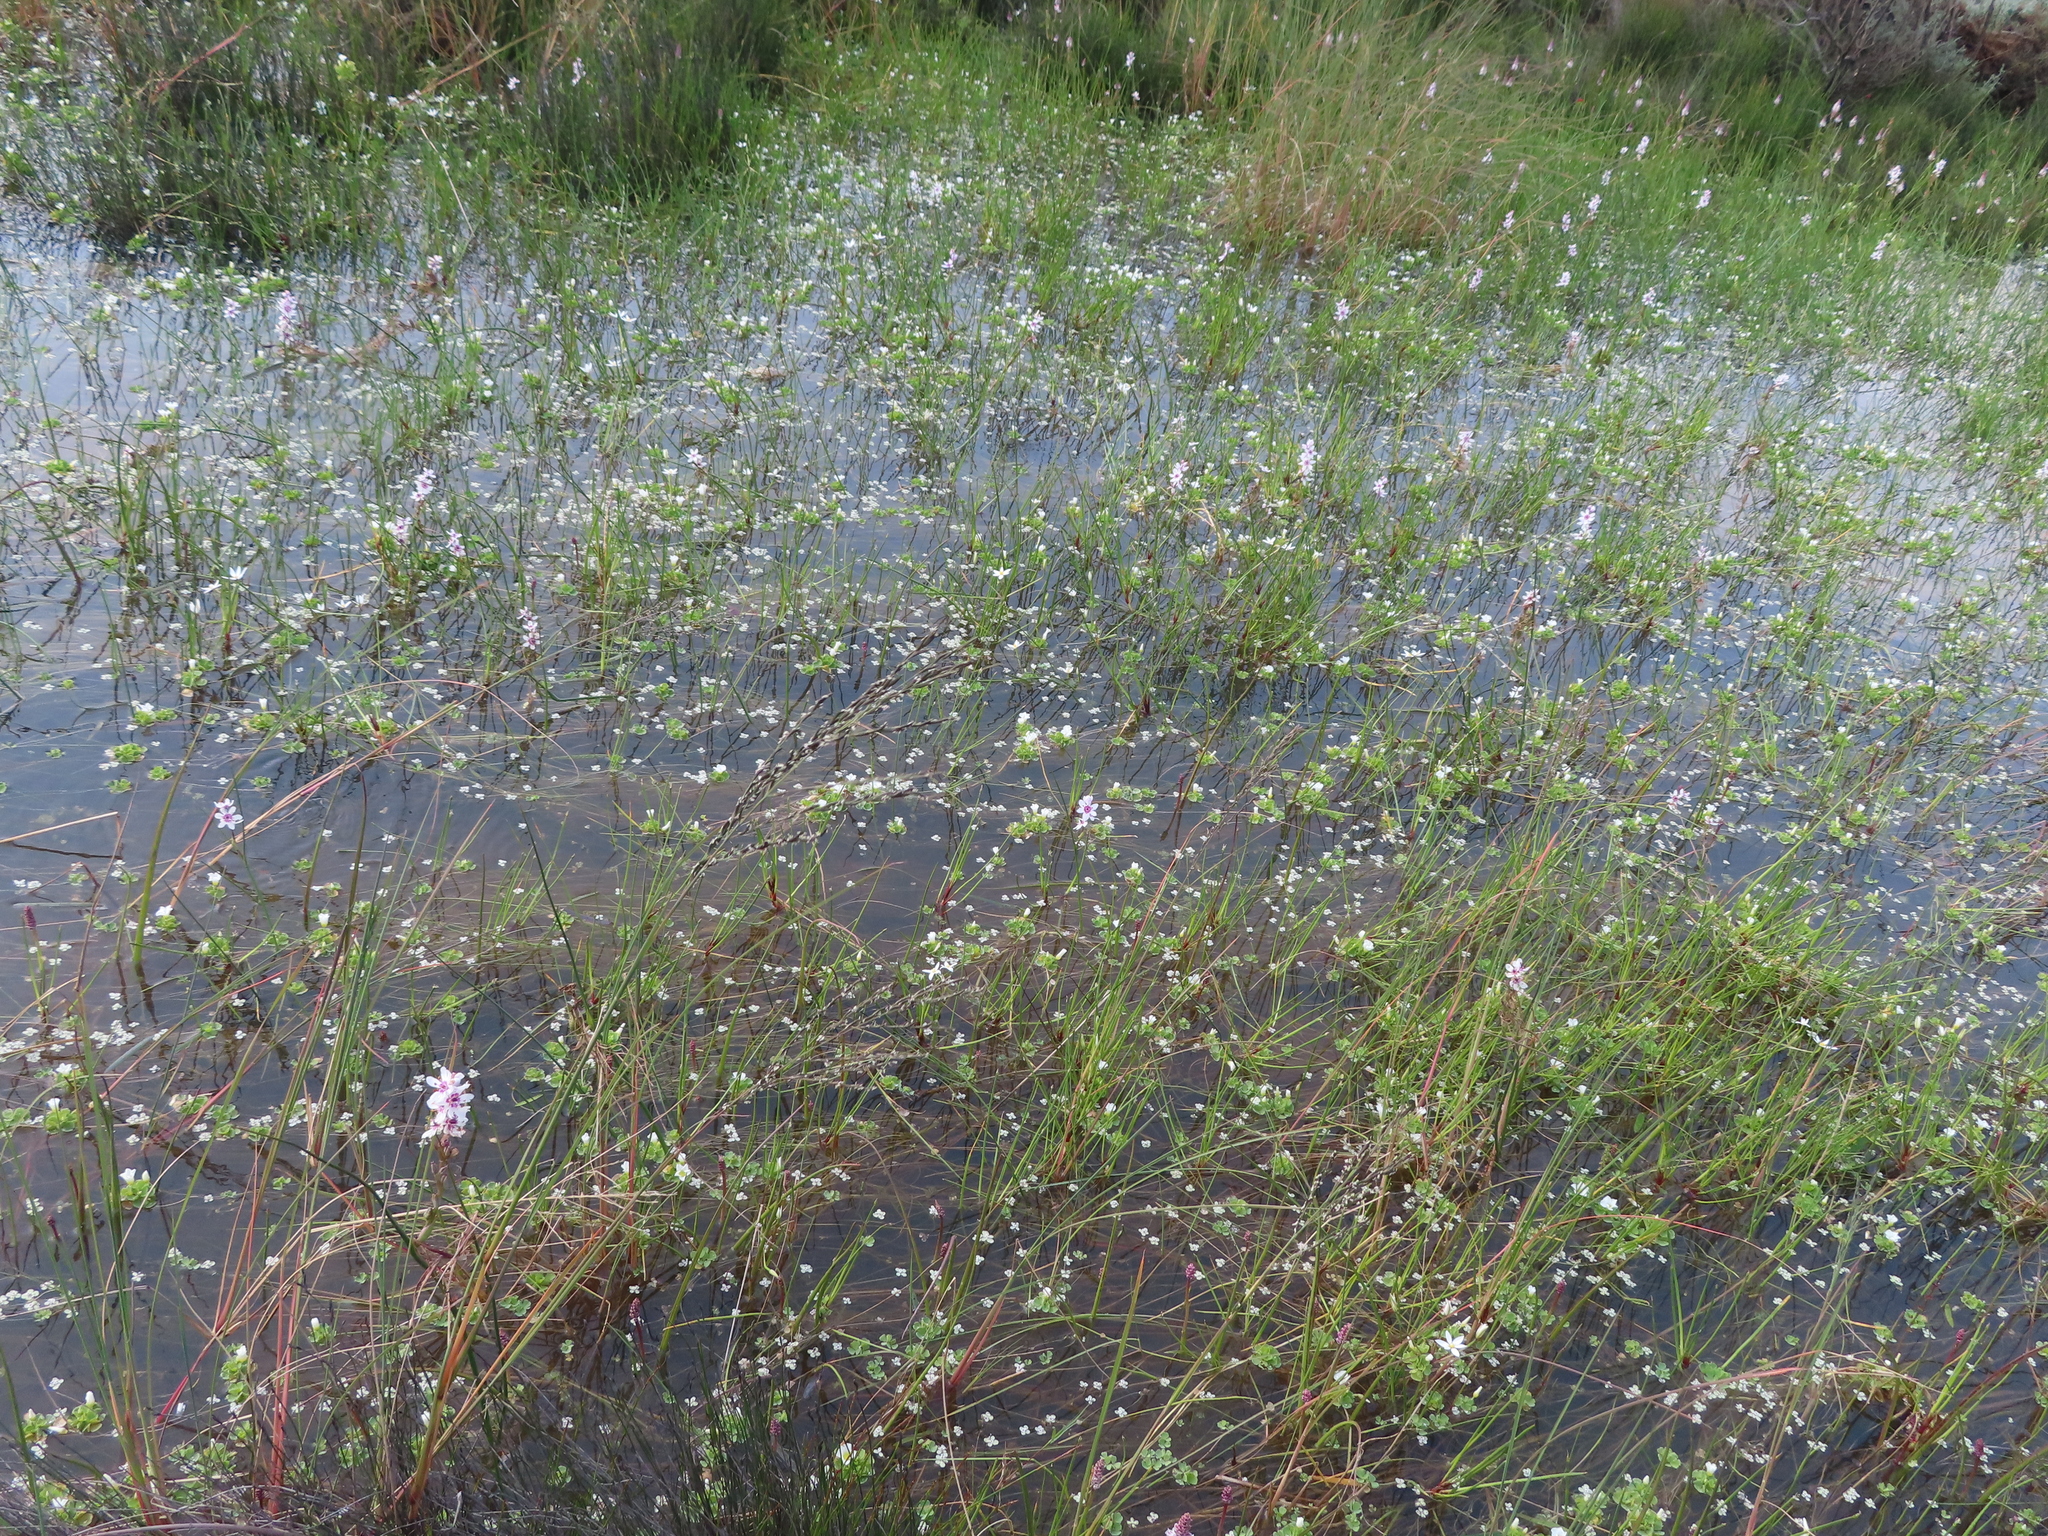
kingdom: Plantae
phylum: Tracheophyta
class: Magnoliopsida
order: Caryophyllales
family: Molluginaceae
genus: Adenogramma
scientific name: Adenogramma natans
